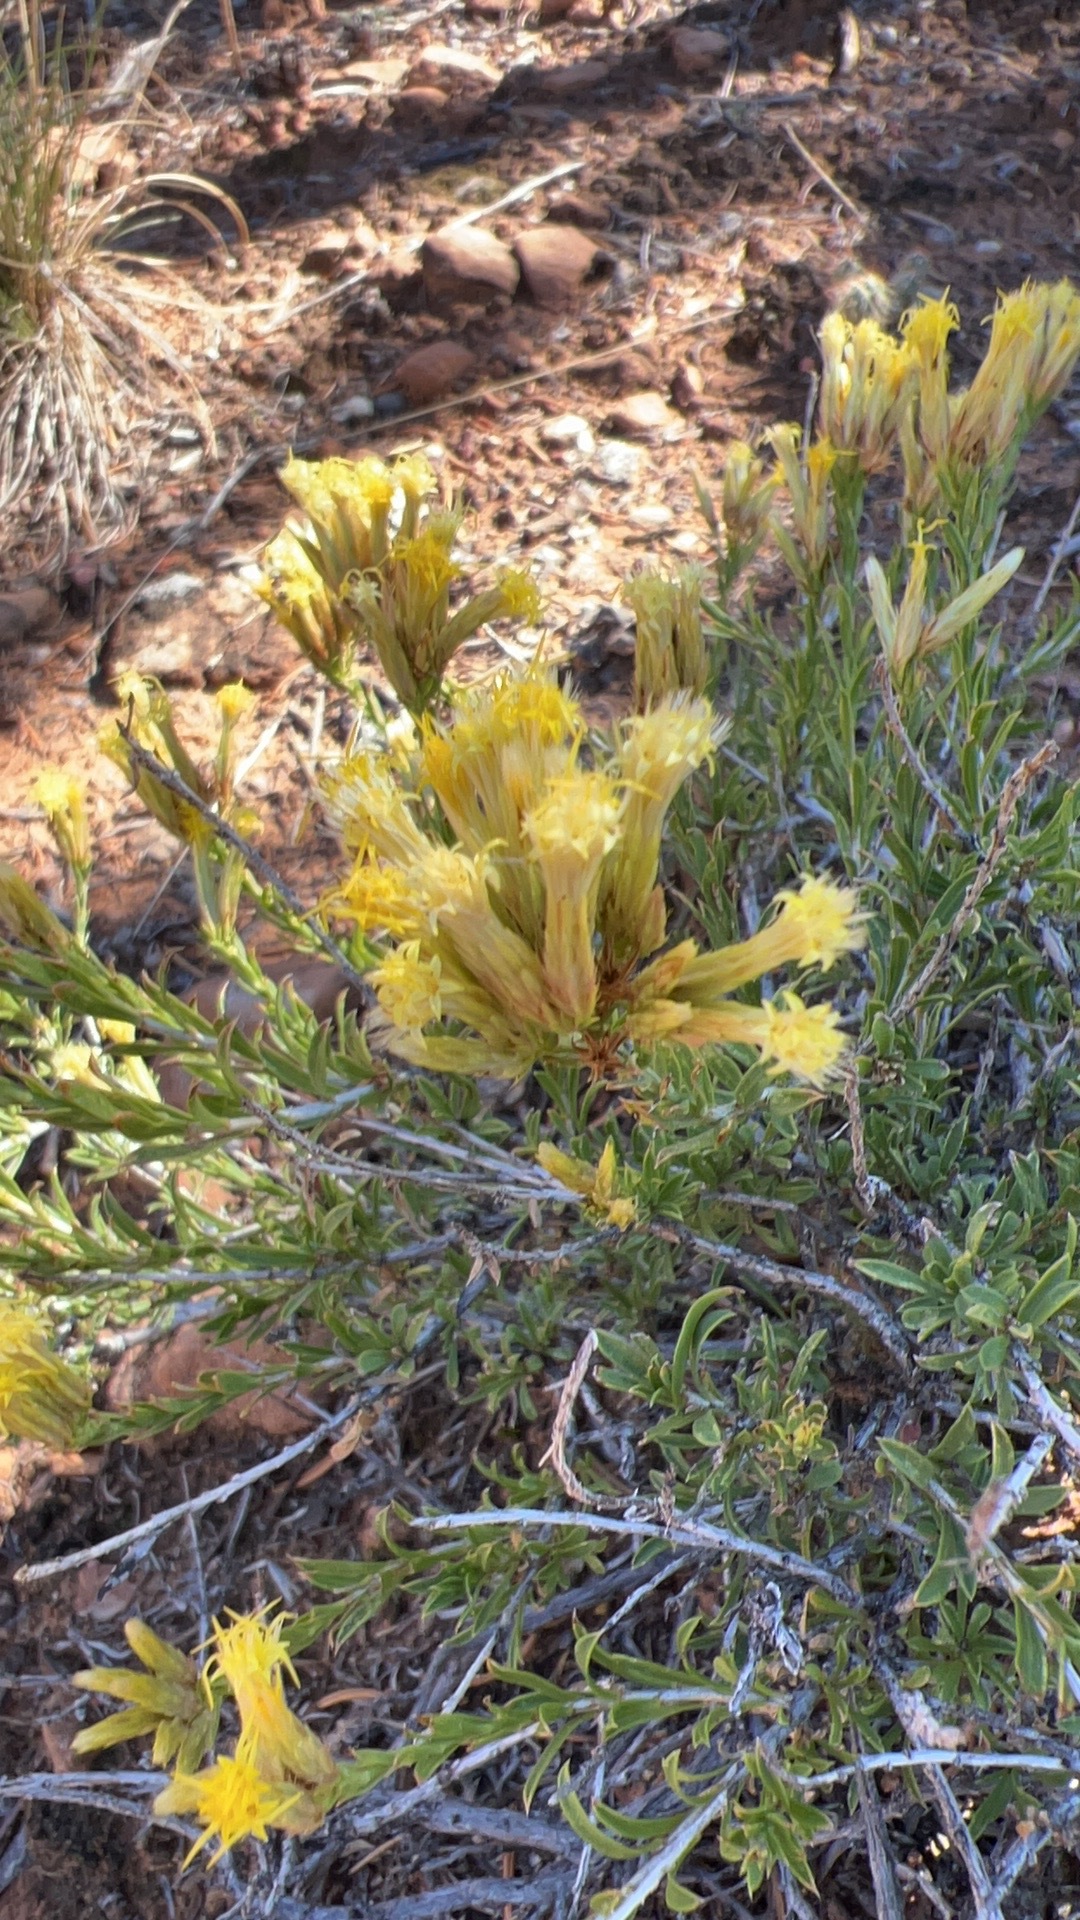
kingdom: Plantae
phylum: Tracheophyta
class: Magnoliopsida
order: Asterales
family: Asteraceae
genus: Chrysothamnus
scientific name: Chrysothamnus viscidiflorus
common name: Yellow rabbitbrush
